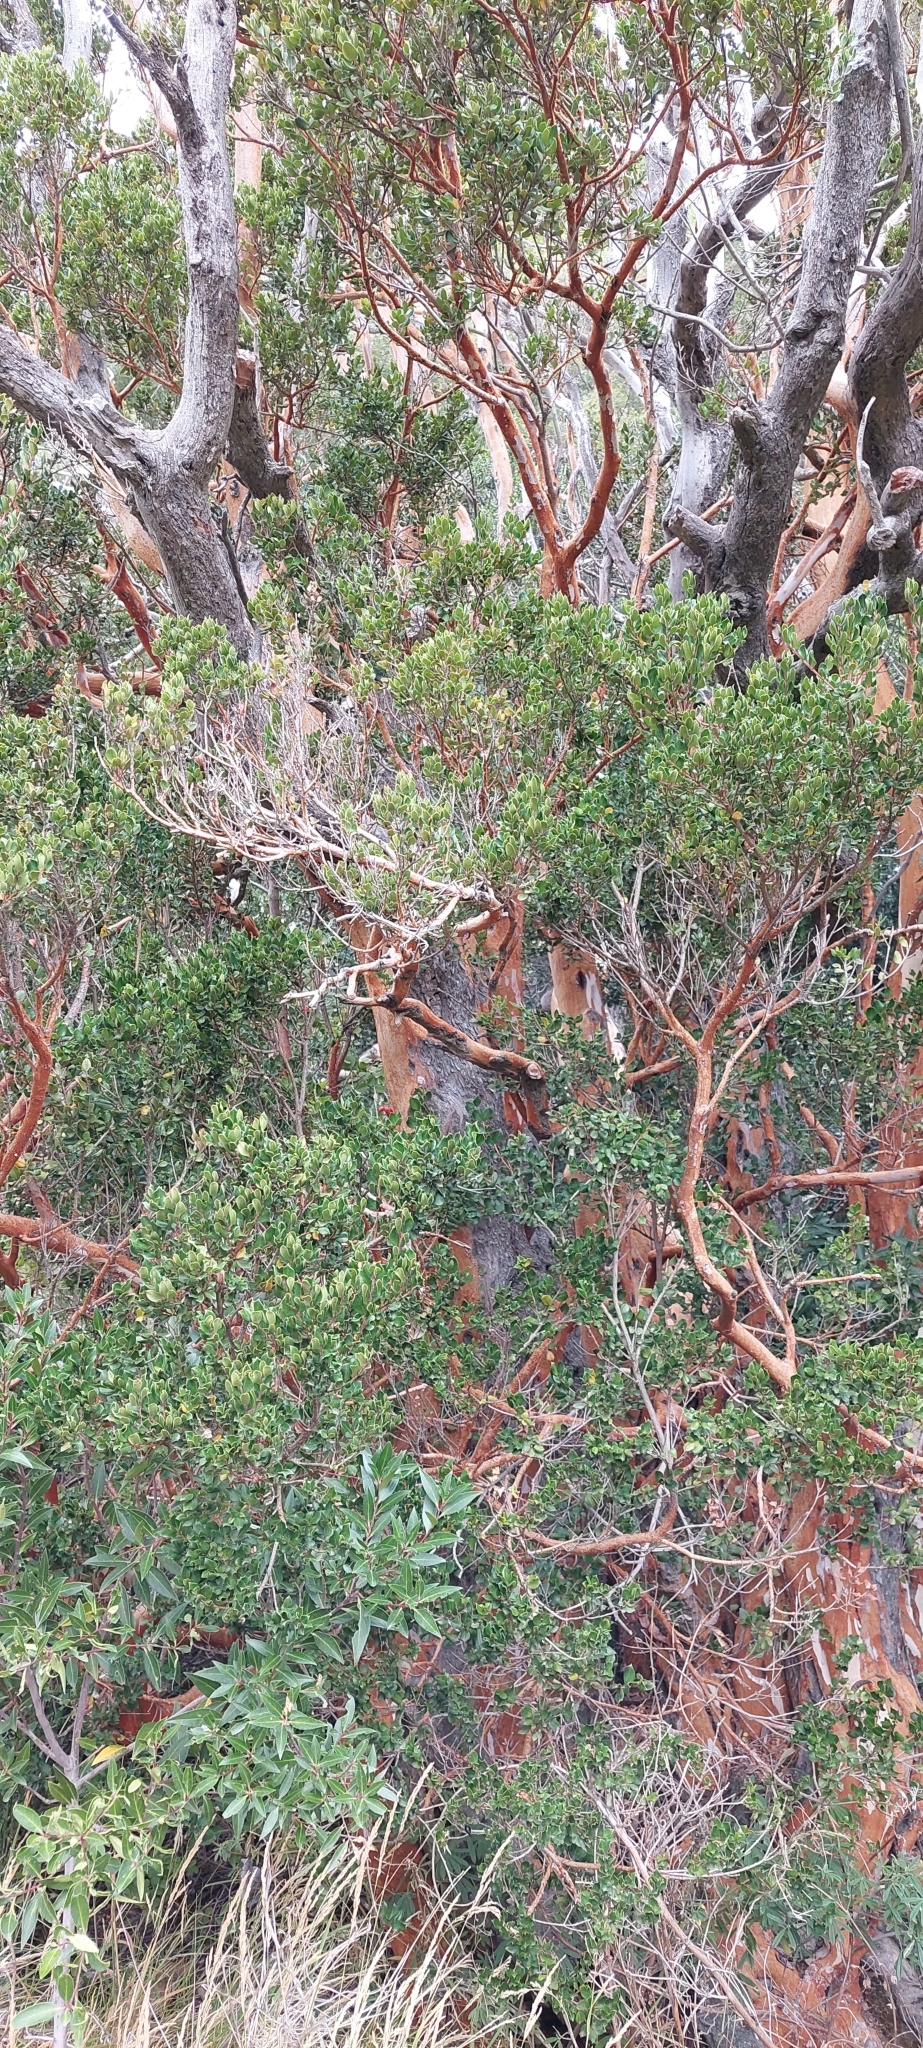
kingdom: Plantae
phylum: Tracheophyta
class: Magnoliopsida
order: Myrtales
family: Myrtaceae
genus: Luma
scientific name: Luma apiculata
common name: Chilean myrtle
